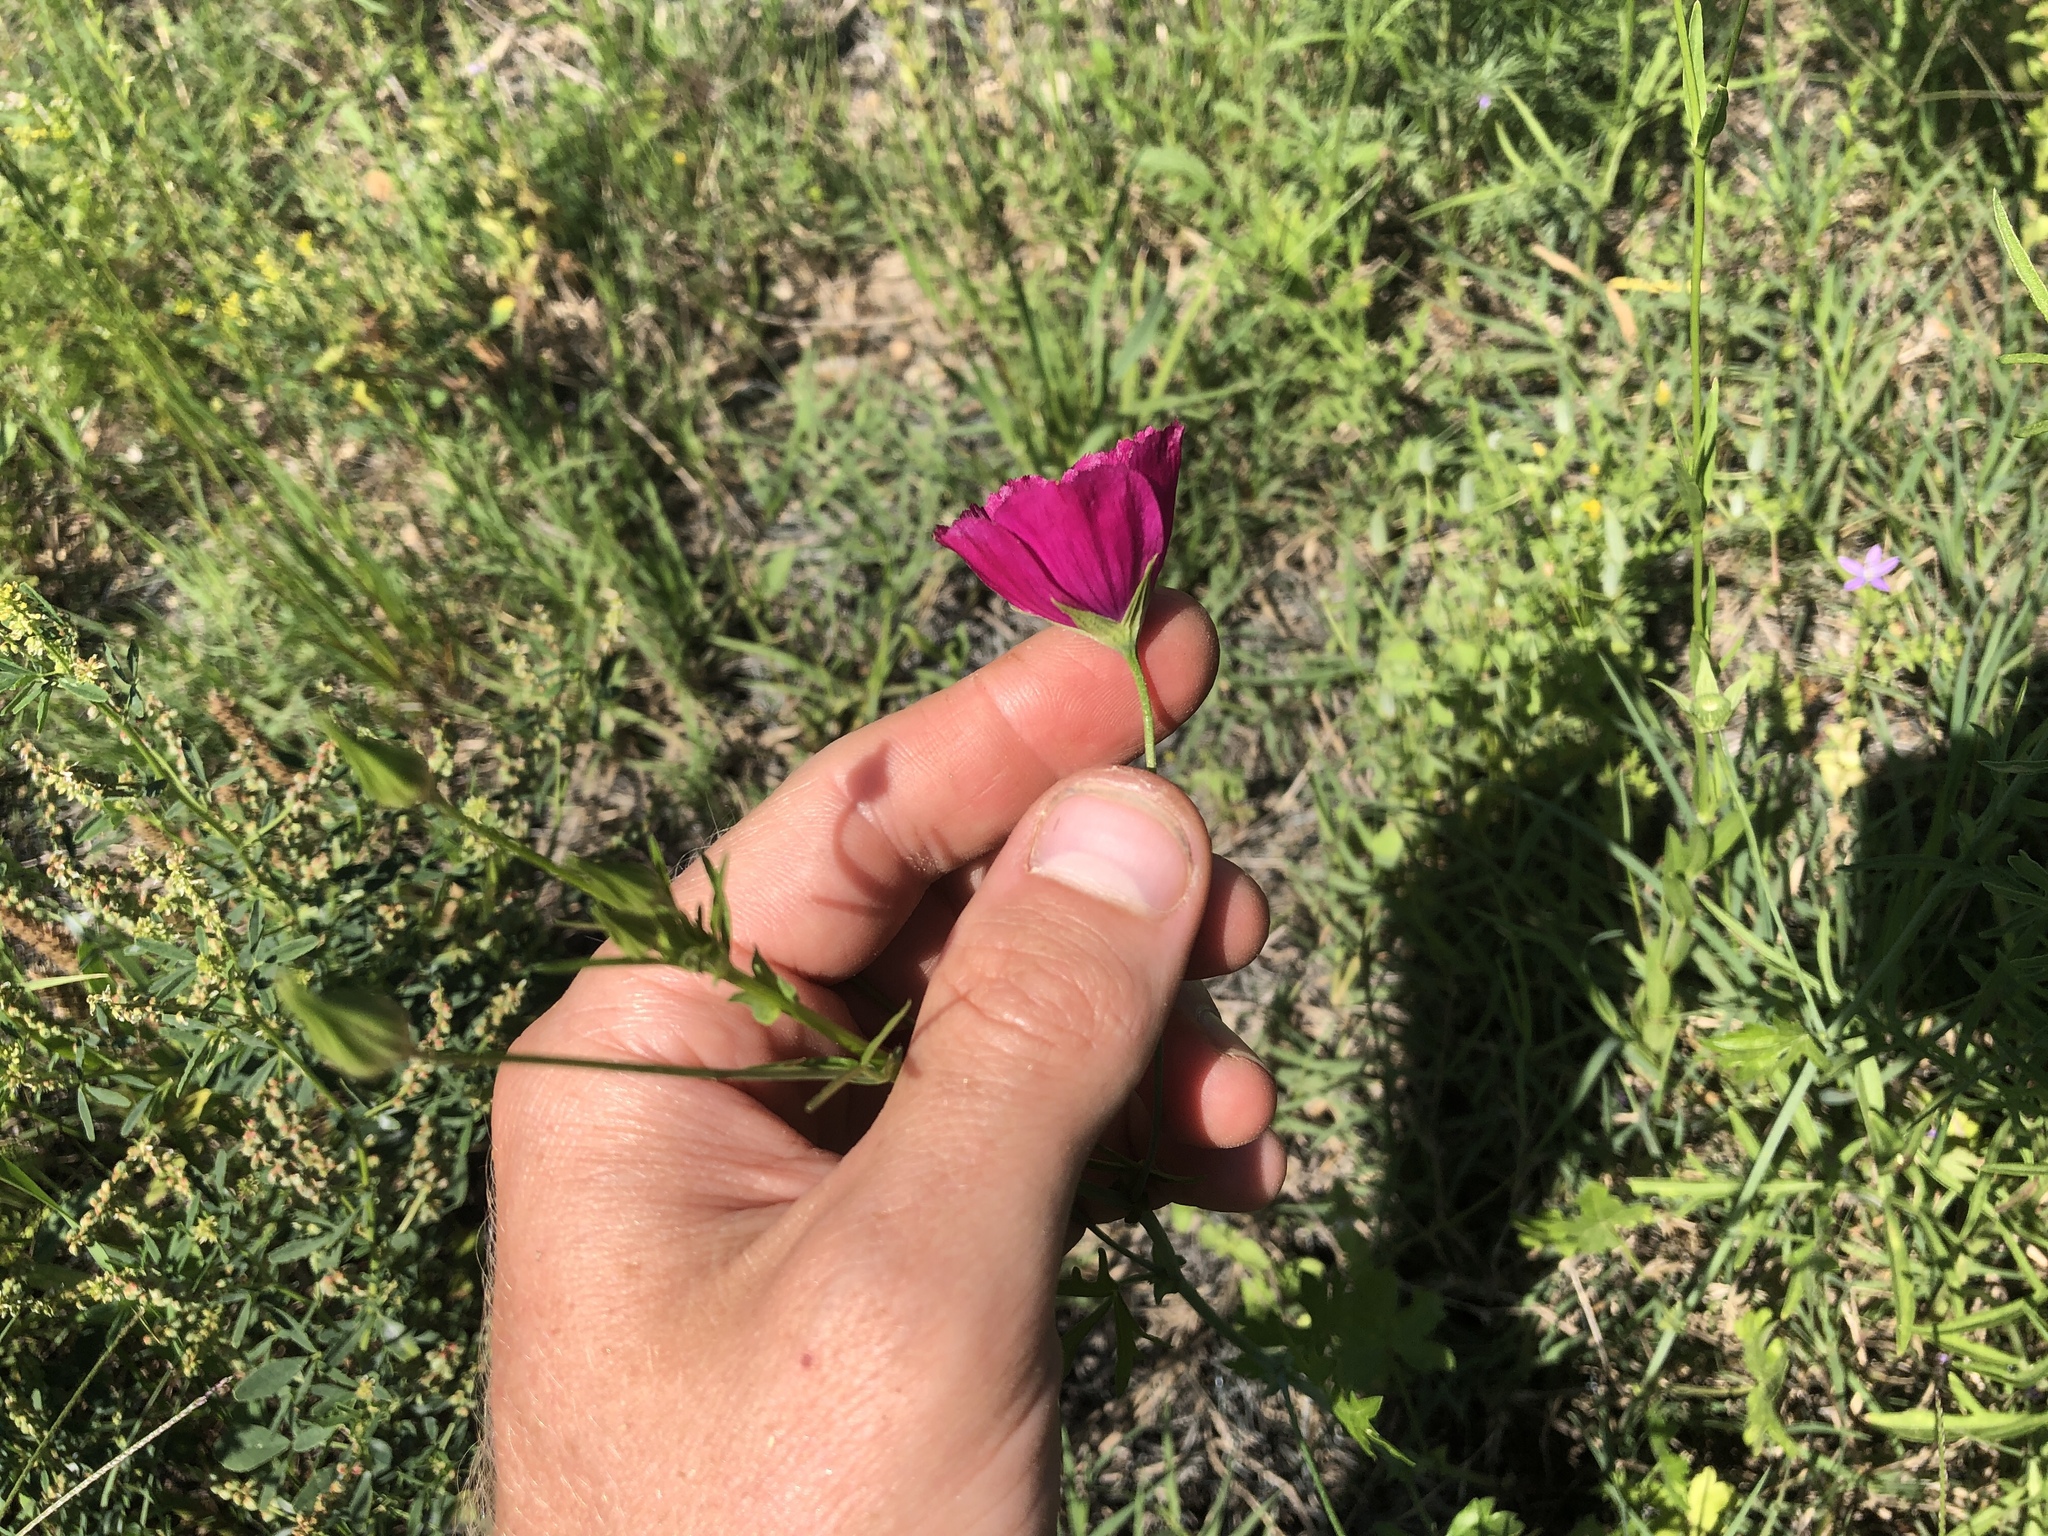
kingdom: Plantae
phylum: Tracheophyta
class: Magnoliopsida
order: Malvales
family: Malvaceae
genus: Callirhoe
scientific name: Callirhoe leiocarpa
